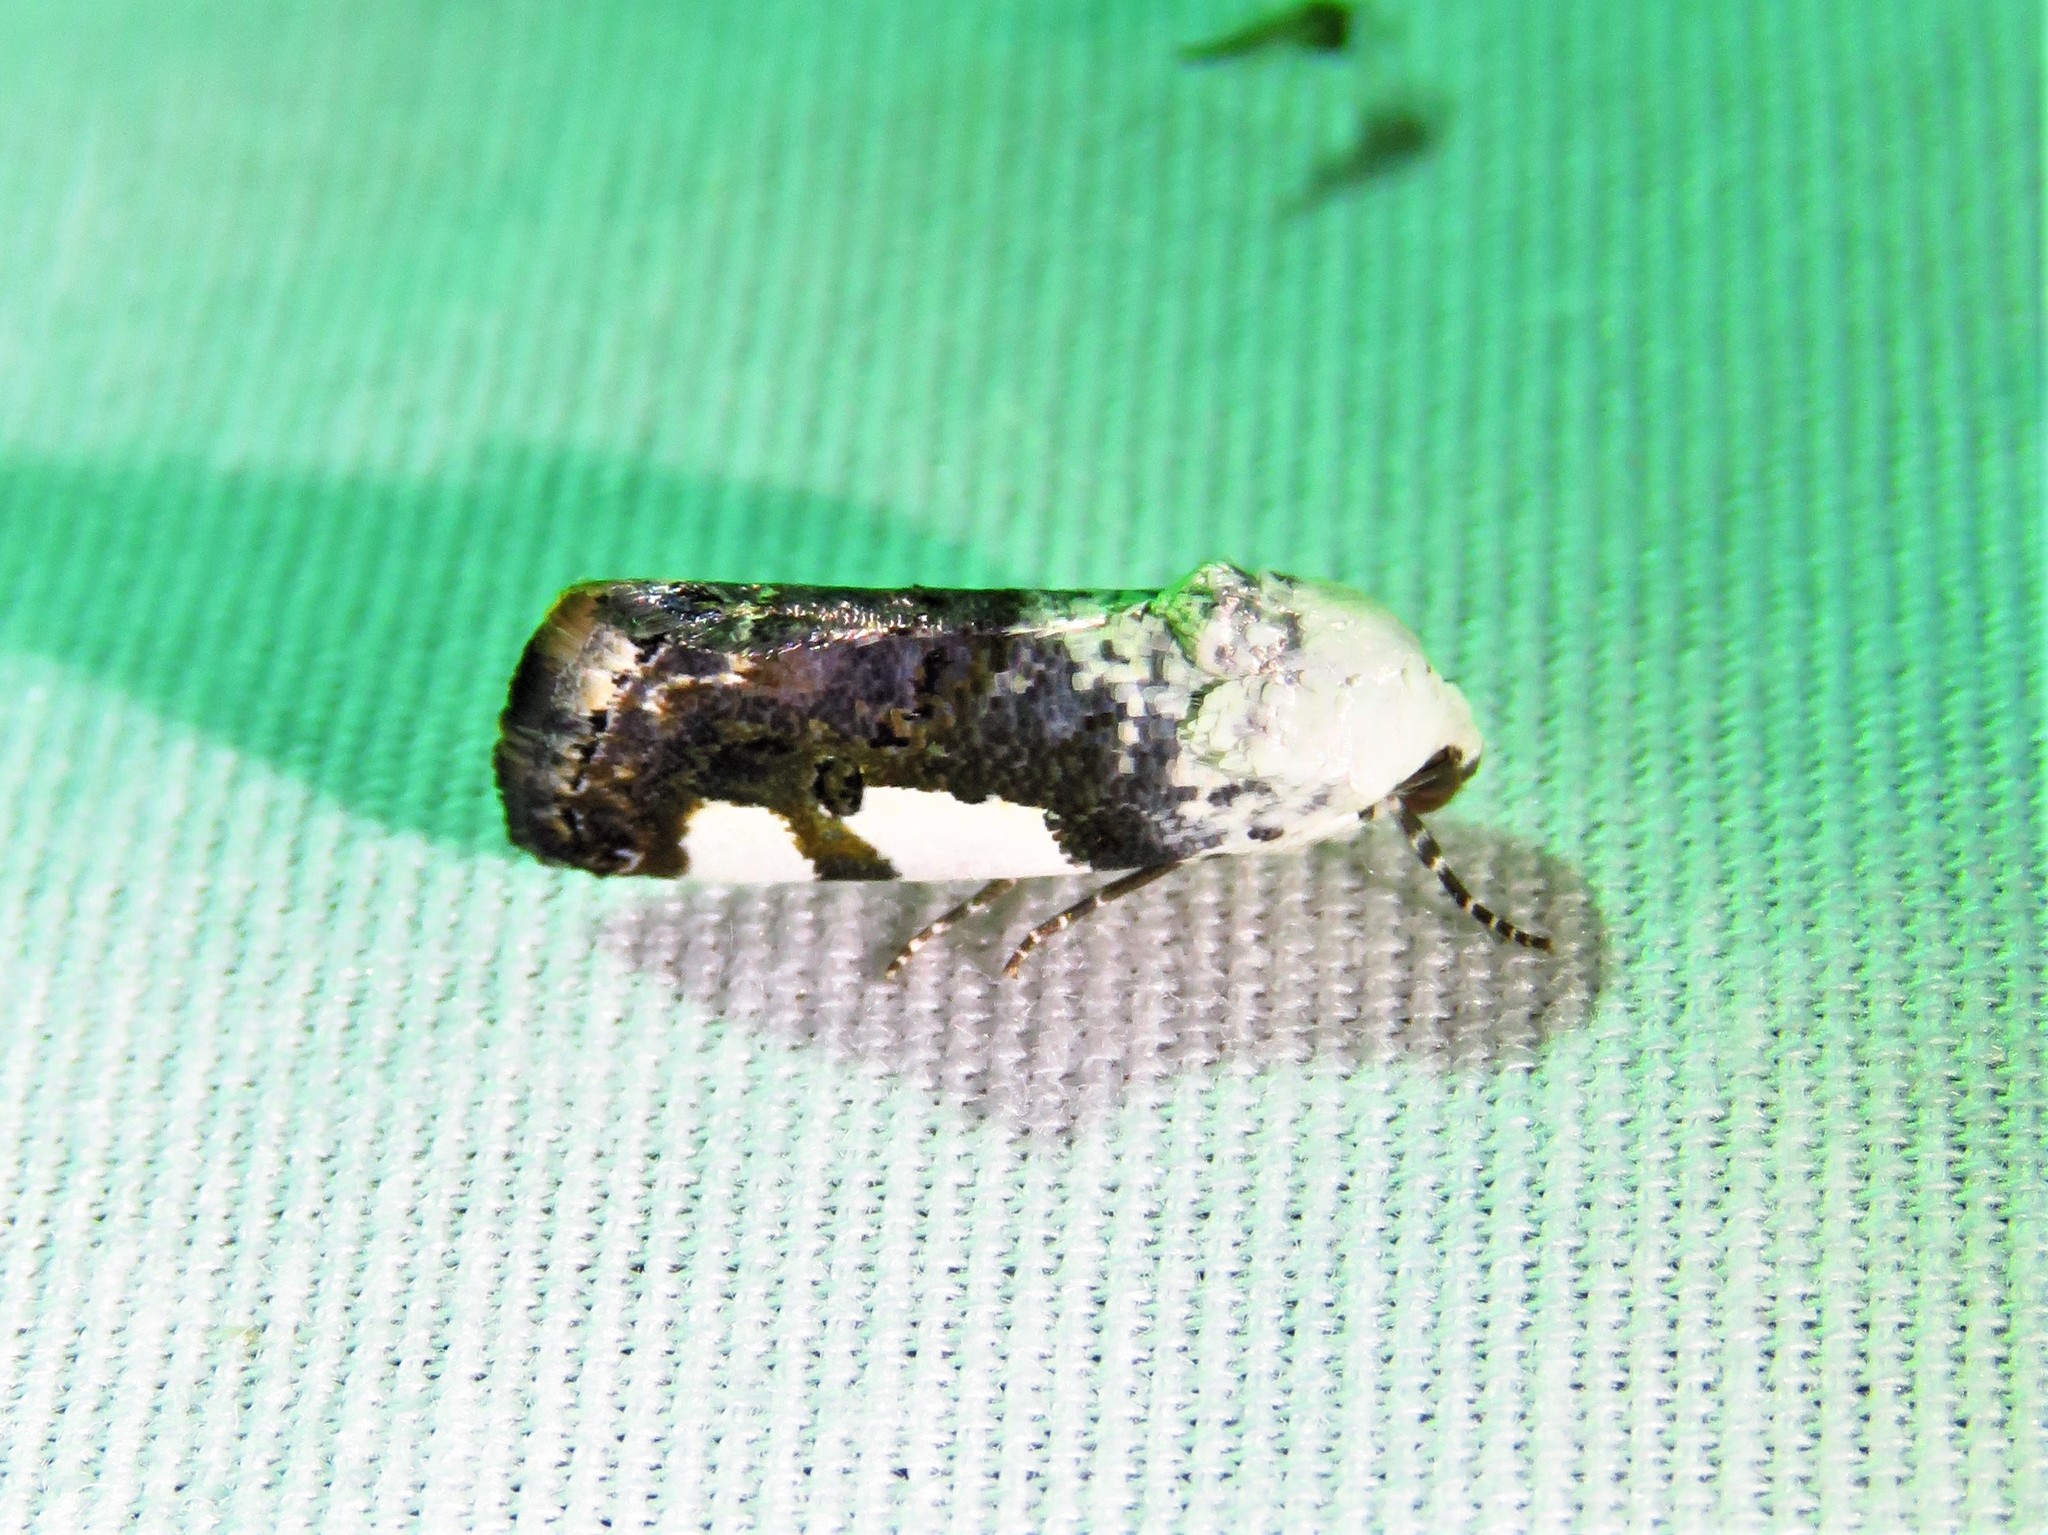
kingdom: Animalia
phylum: Arthropoda
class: Insecta
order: Lepidoptera
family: Noctuidae
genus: Acontia
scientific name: Acontia quadriplaga
